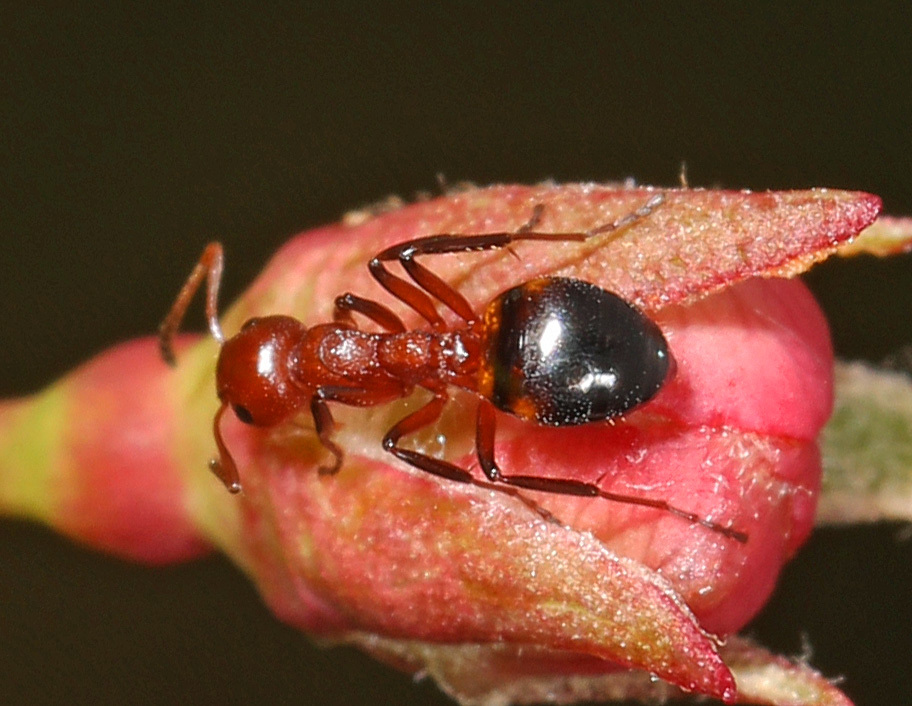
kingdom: Animalia
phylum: Arthropoda
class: Insecta
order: Hymenoptera
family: Formicidae
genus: Dolichoderus
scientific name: Dolichoderus mariae
